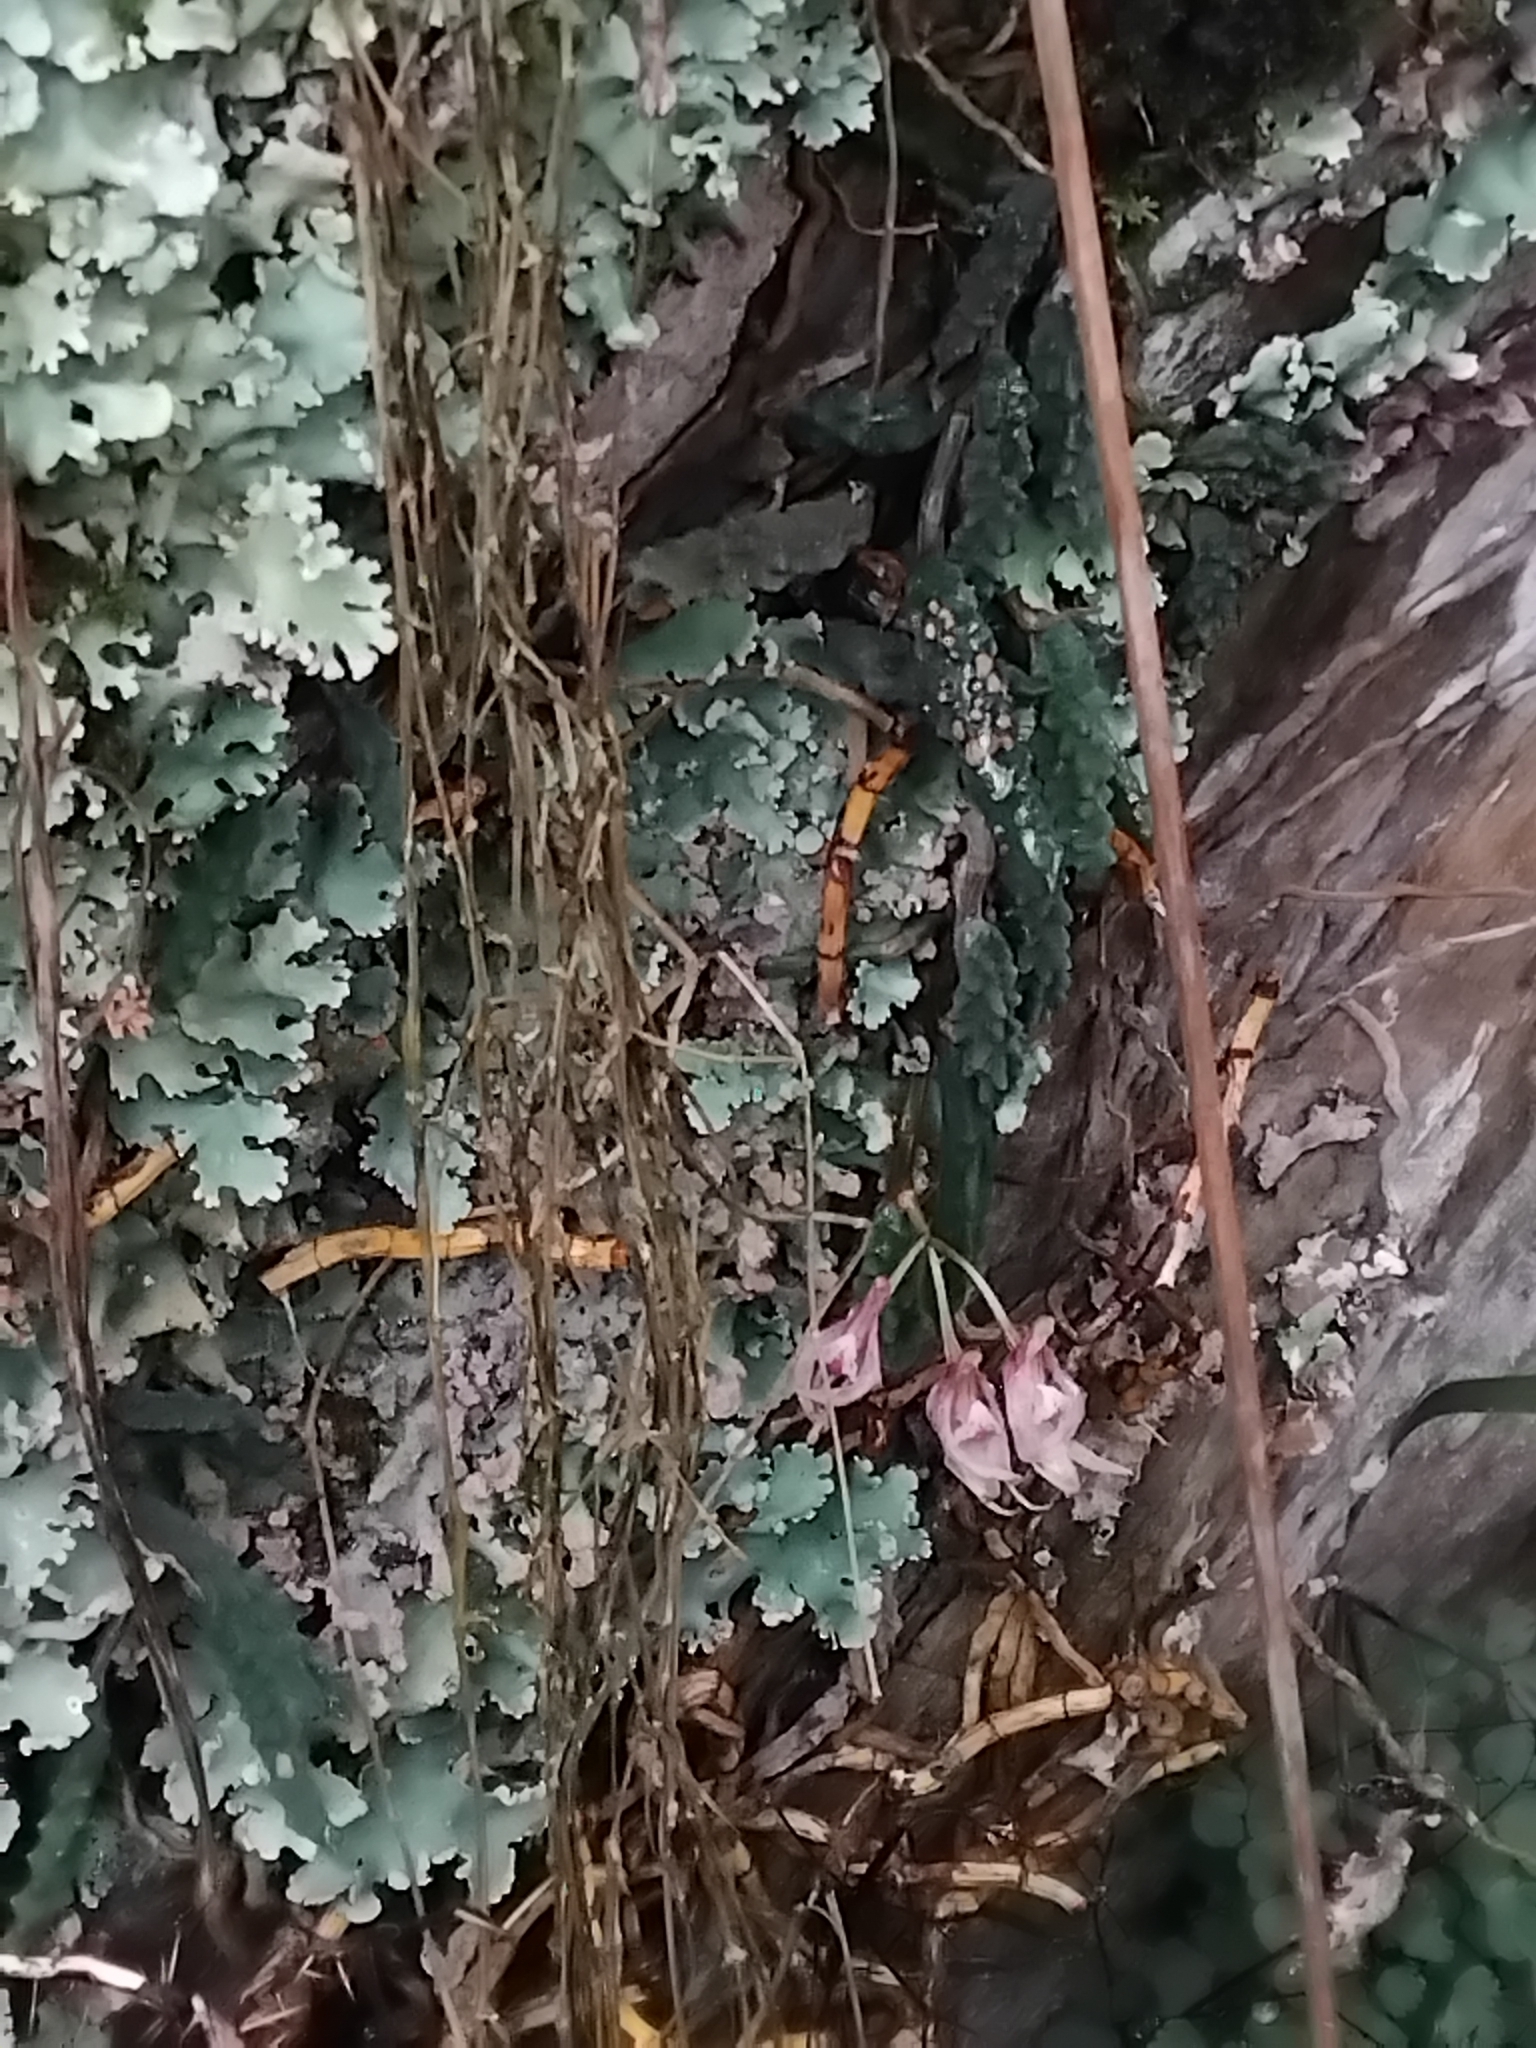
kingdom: Plantae
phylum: Tracheophyta
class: Liliopsida
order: Asparagales
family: Orchidaceae
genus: Dendrobium
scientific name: Dendrobium cucumerinum
